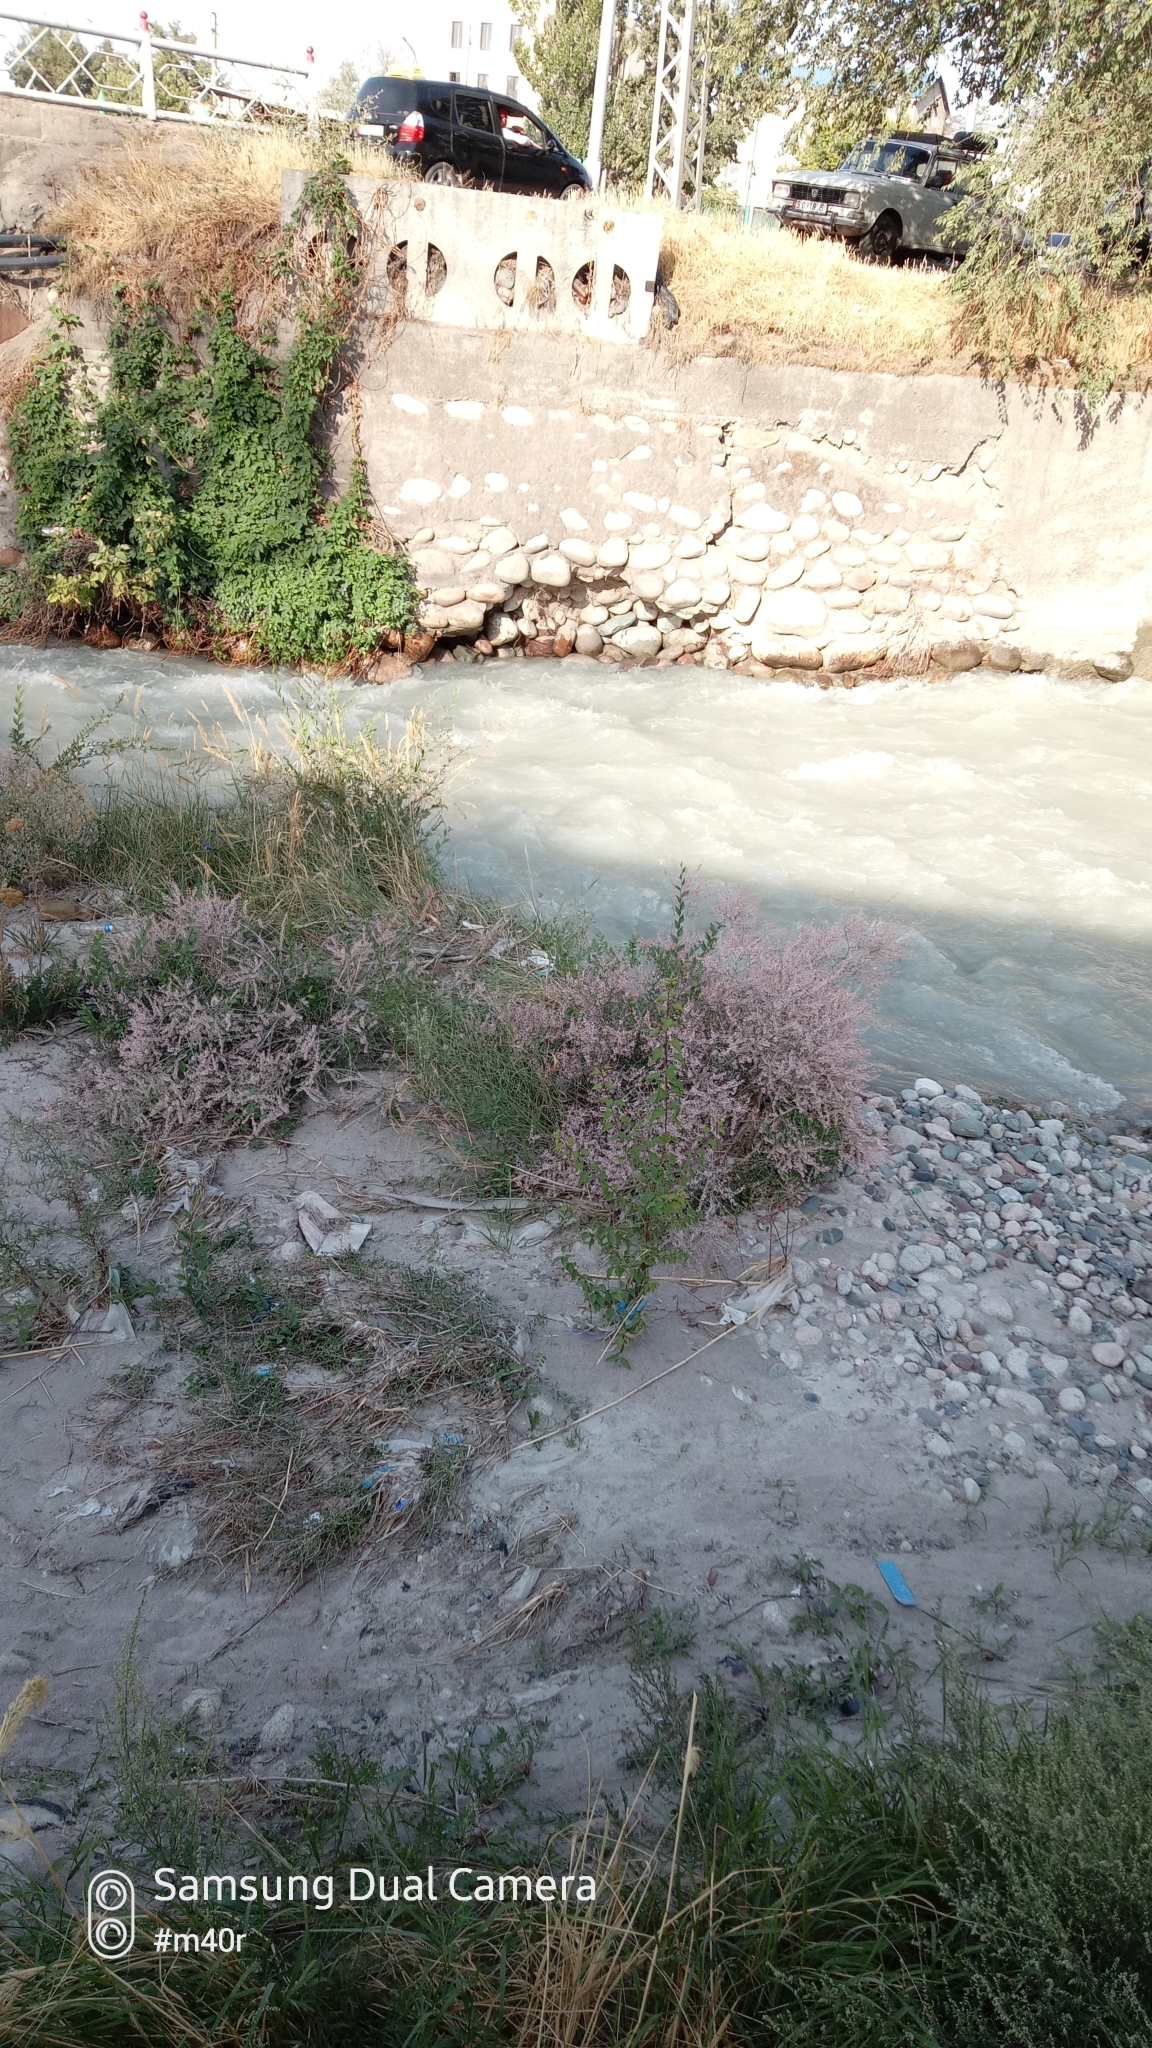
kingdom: Plantae
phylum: Tracheophyta
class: Magnoliopsida
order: Caryophyllales
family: Polygonaceae
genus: Atraphaxis
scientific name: Atraphaxis frutescens
